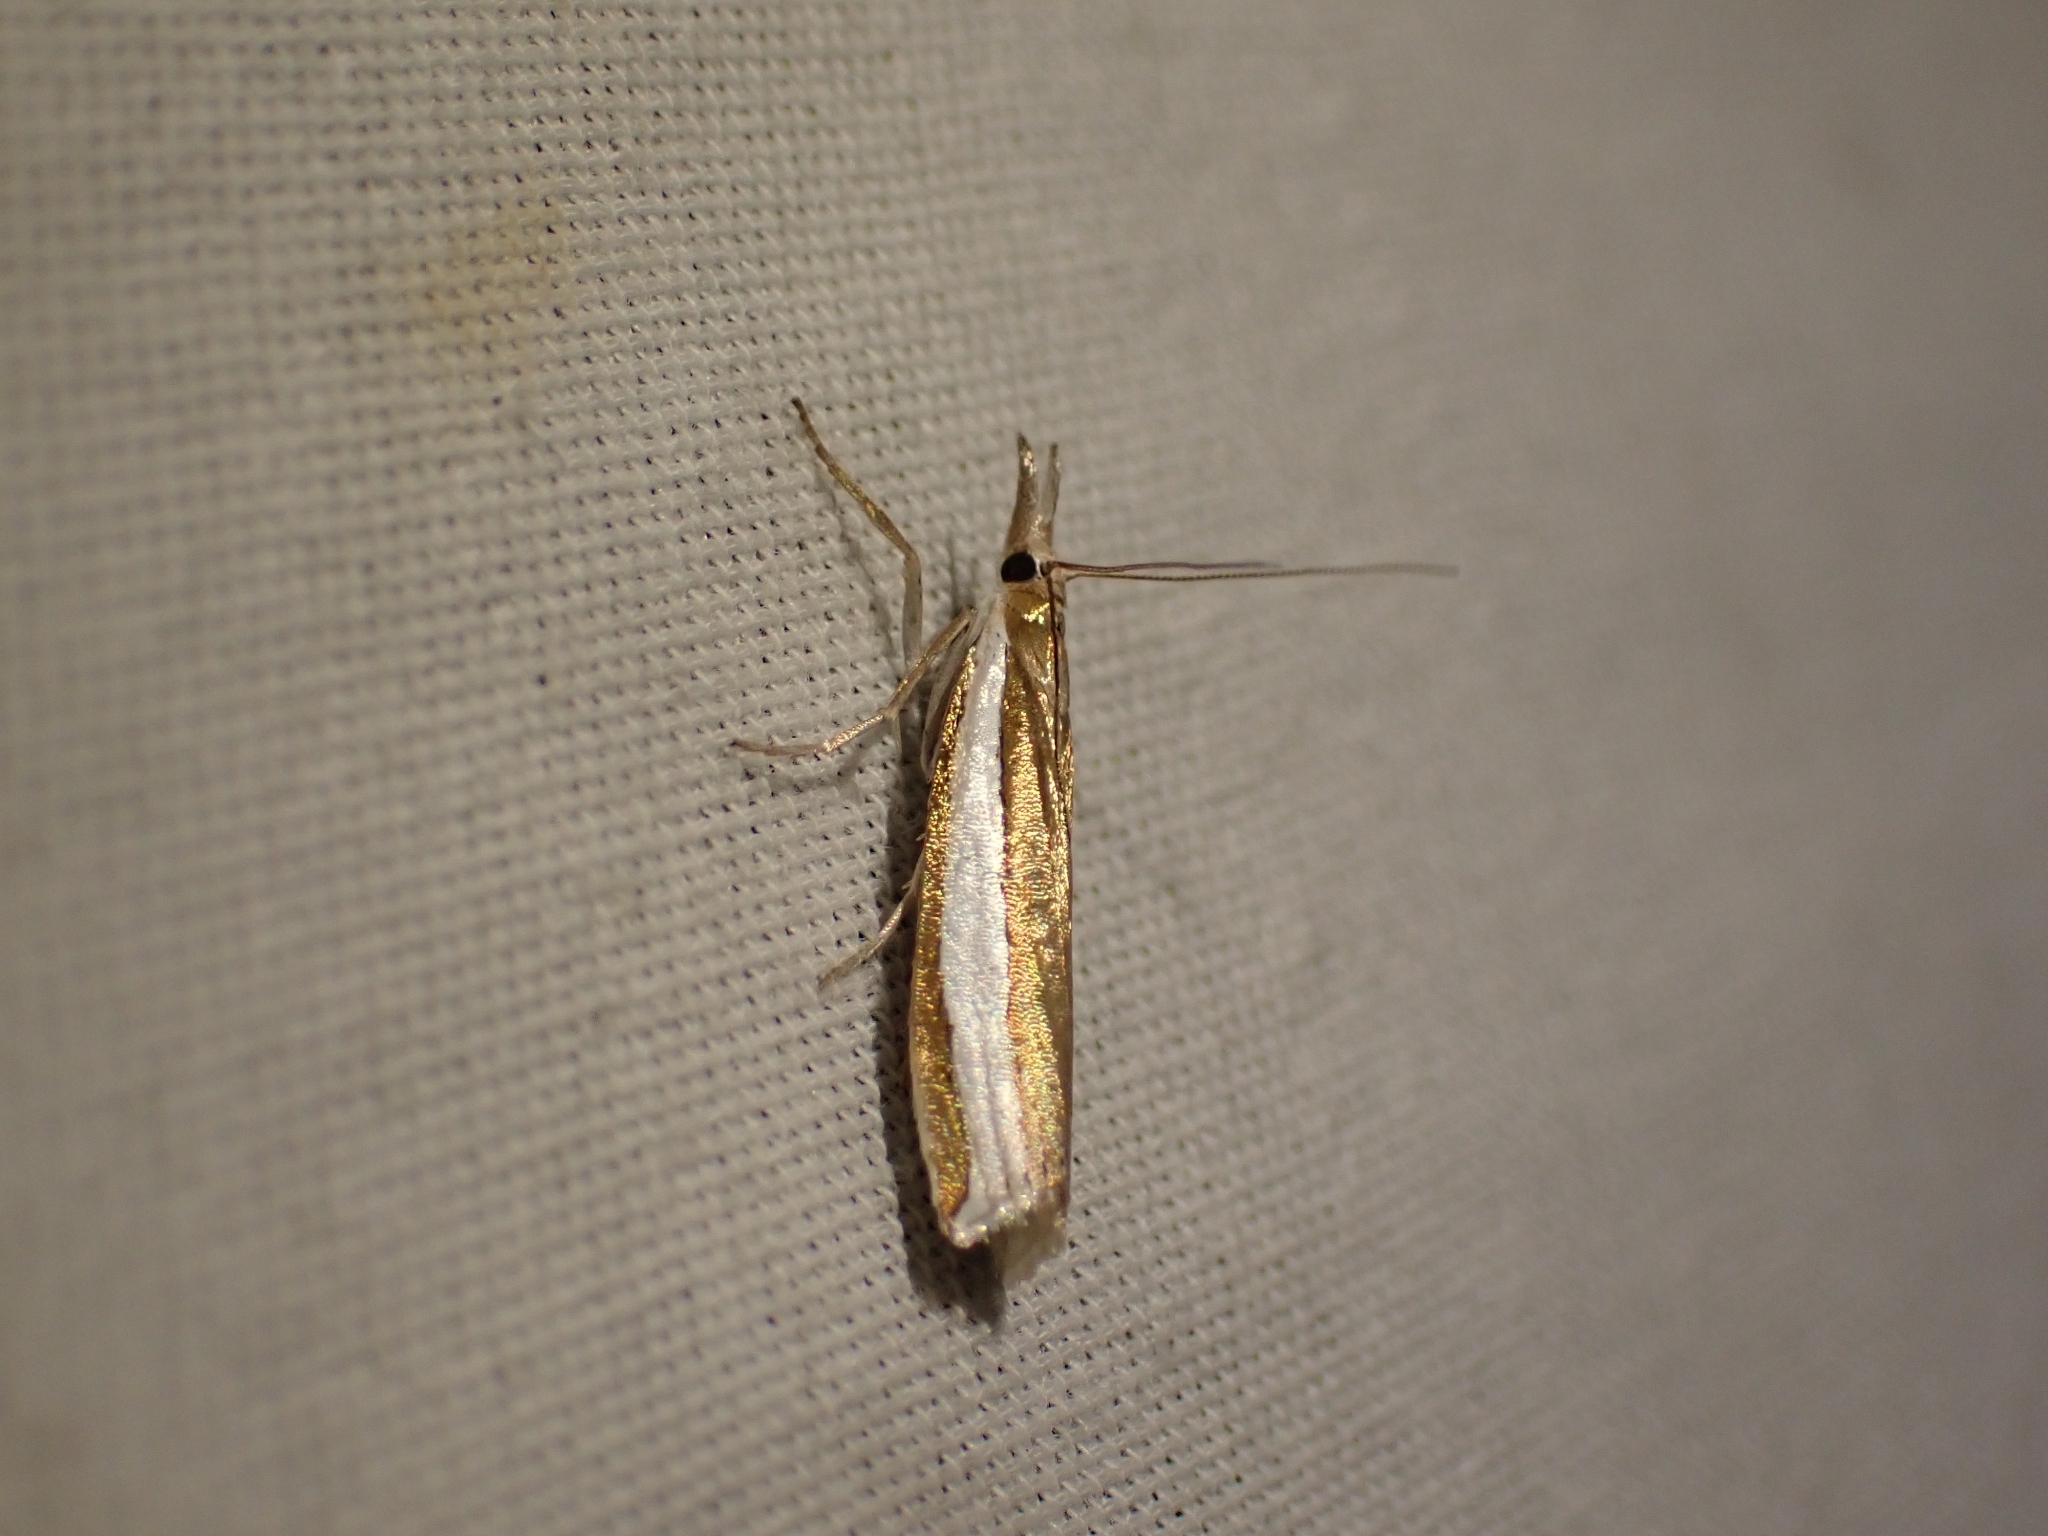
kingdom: Animalia
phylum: Arthropoda
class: Insecta
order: Lepidoptera
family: Crambidae
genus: Crambus
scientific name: Crambus unistriatellus
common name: Wide-stripe grass-veneer moth
